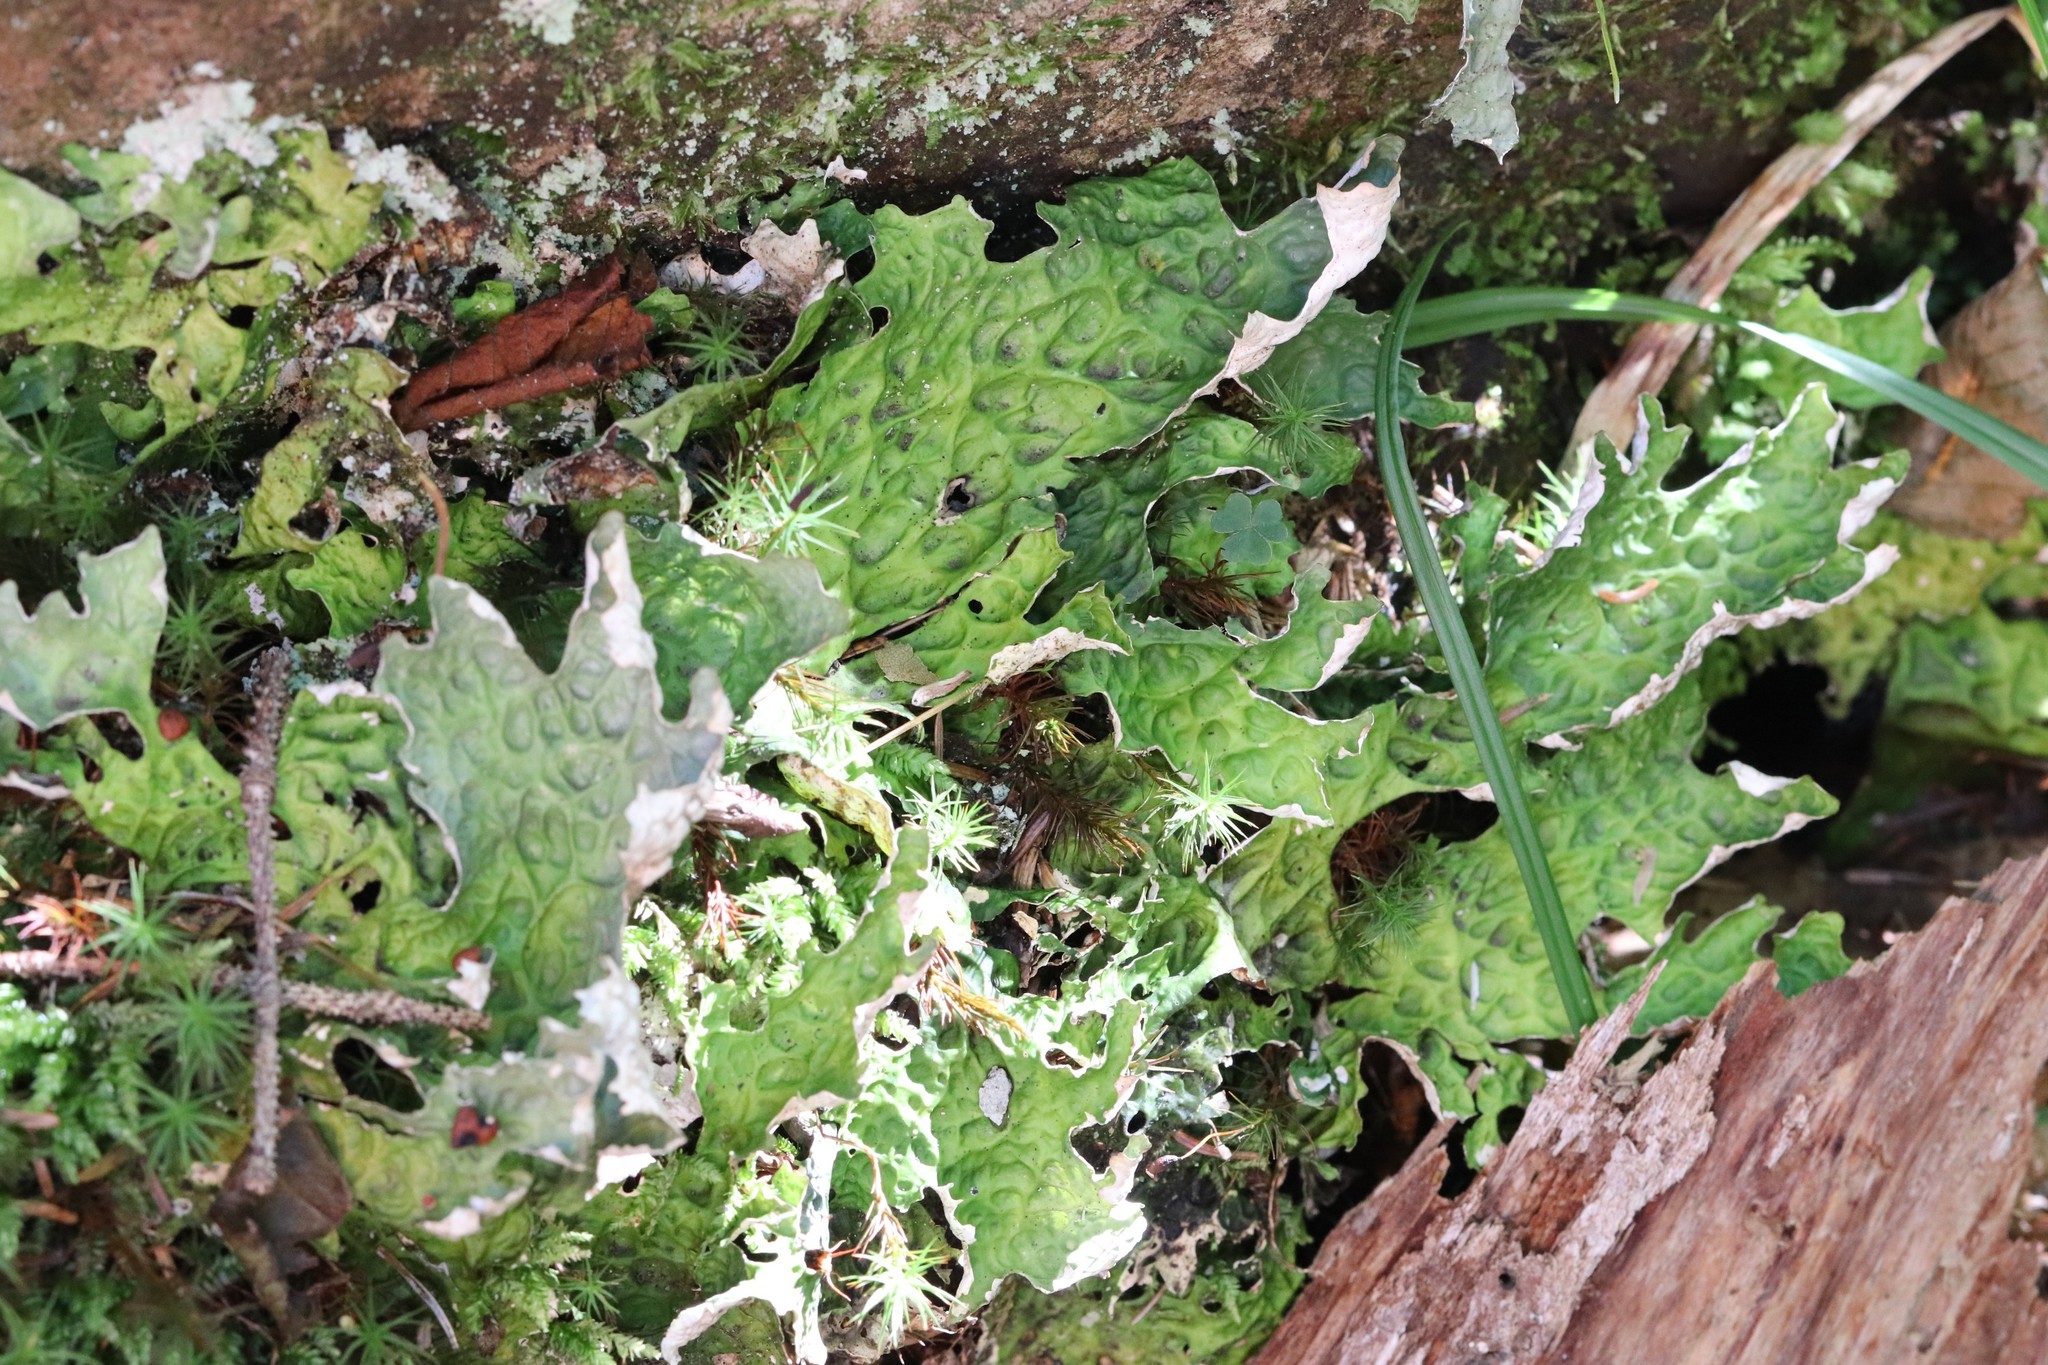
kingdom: Fungi
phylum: Ascomycota
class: Lecanoromycetes
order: Peltigerales
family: Lobariaceae
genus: Lobaria
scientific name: Lobaria pulmonaria
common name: Lungwort
